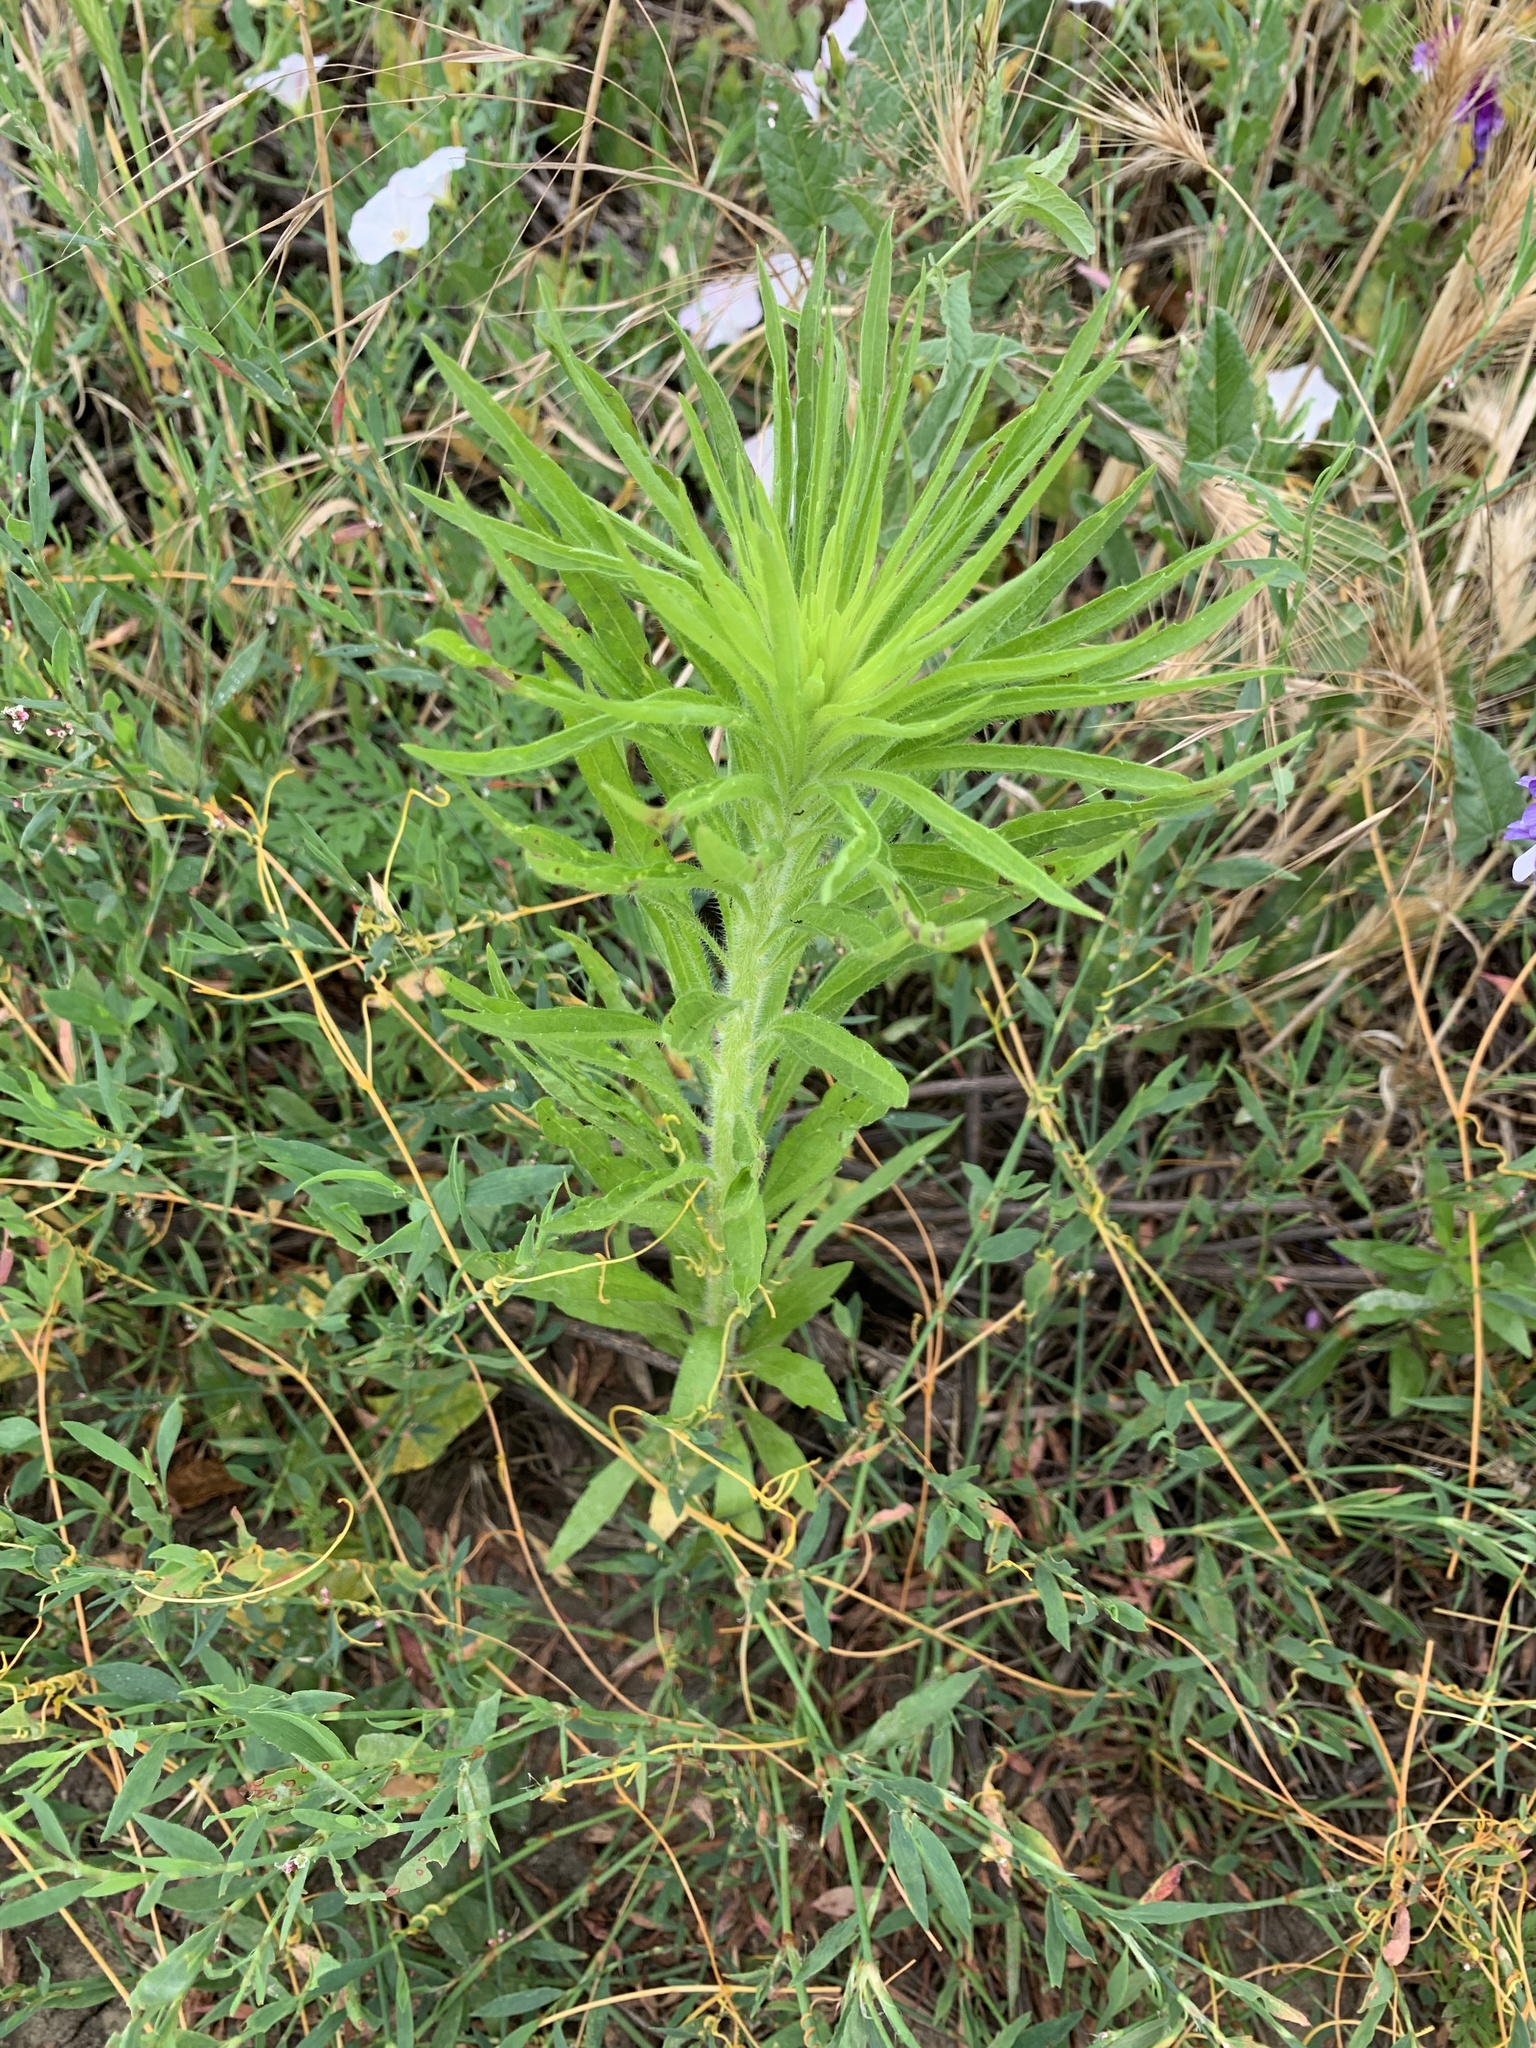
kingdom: Plantae
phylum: Tracheophyta
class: Magnoliopsida
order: Asterales
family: Asteraceae
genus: Erigeron
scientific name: Erigeron canadensis
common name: Canadian fleabane
